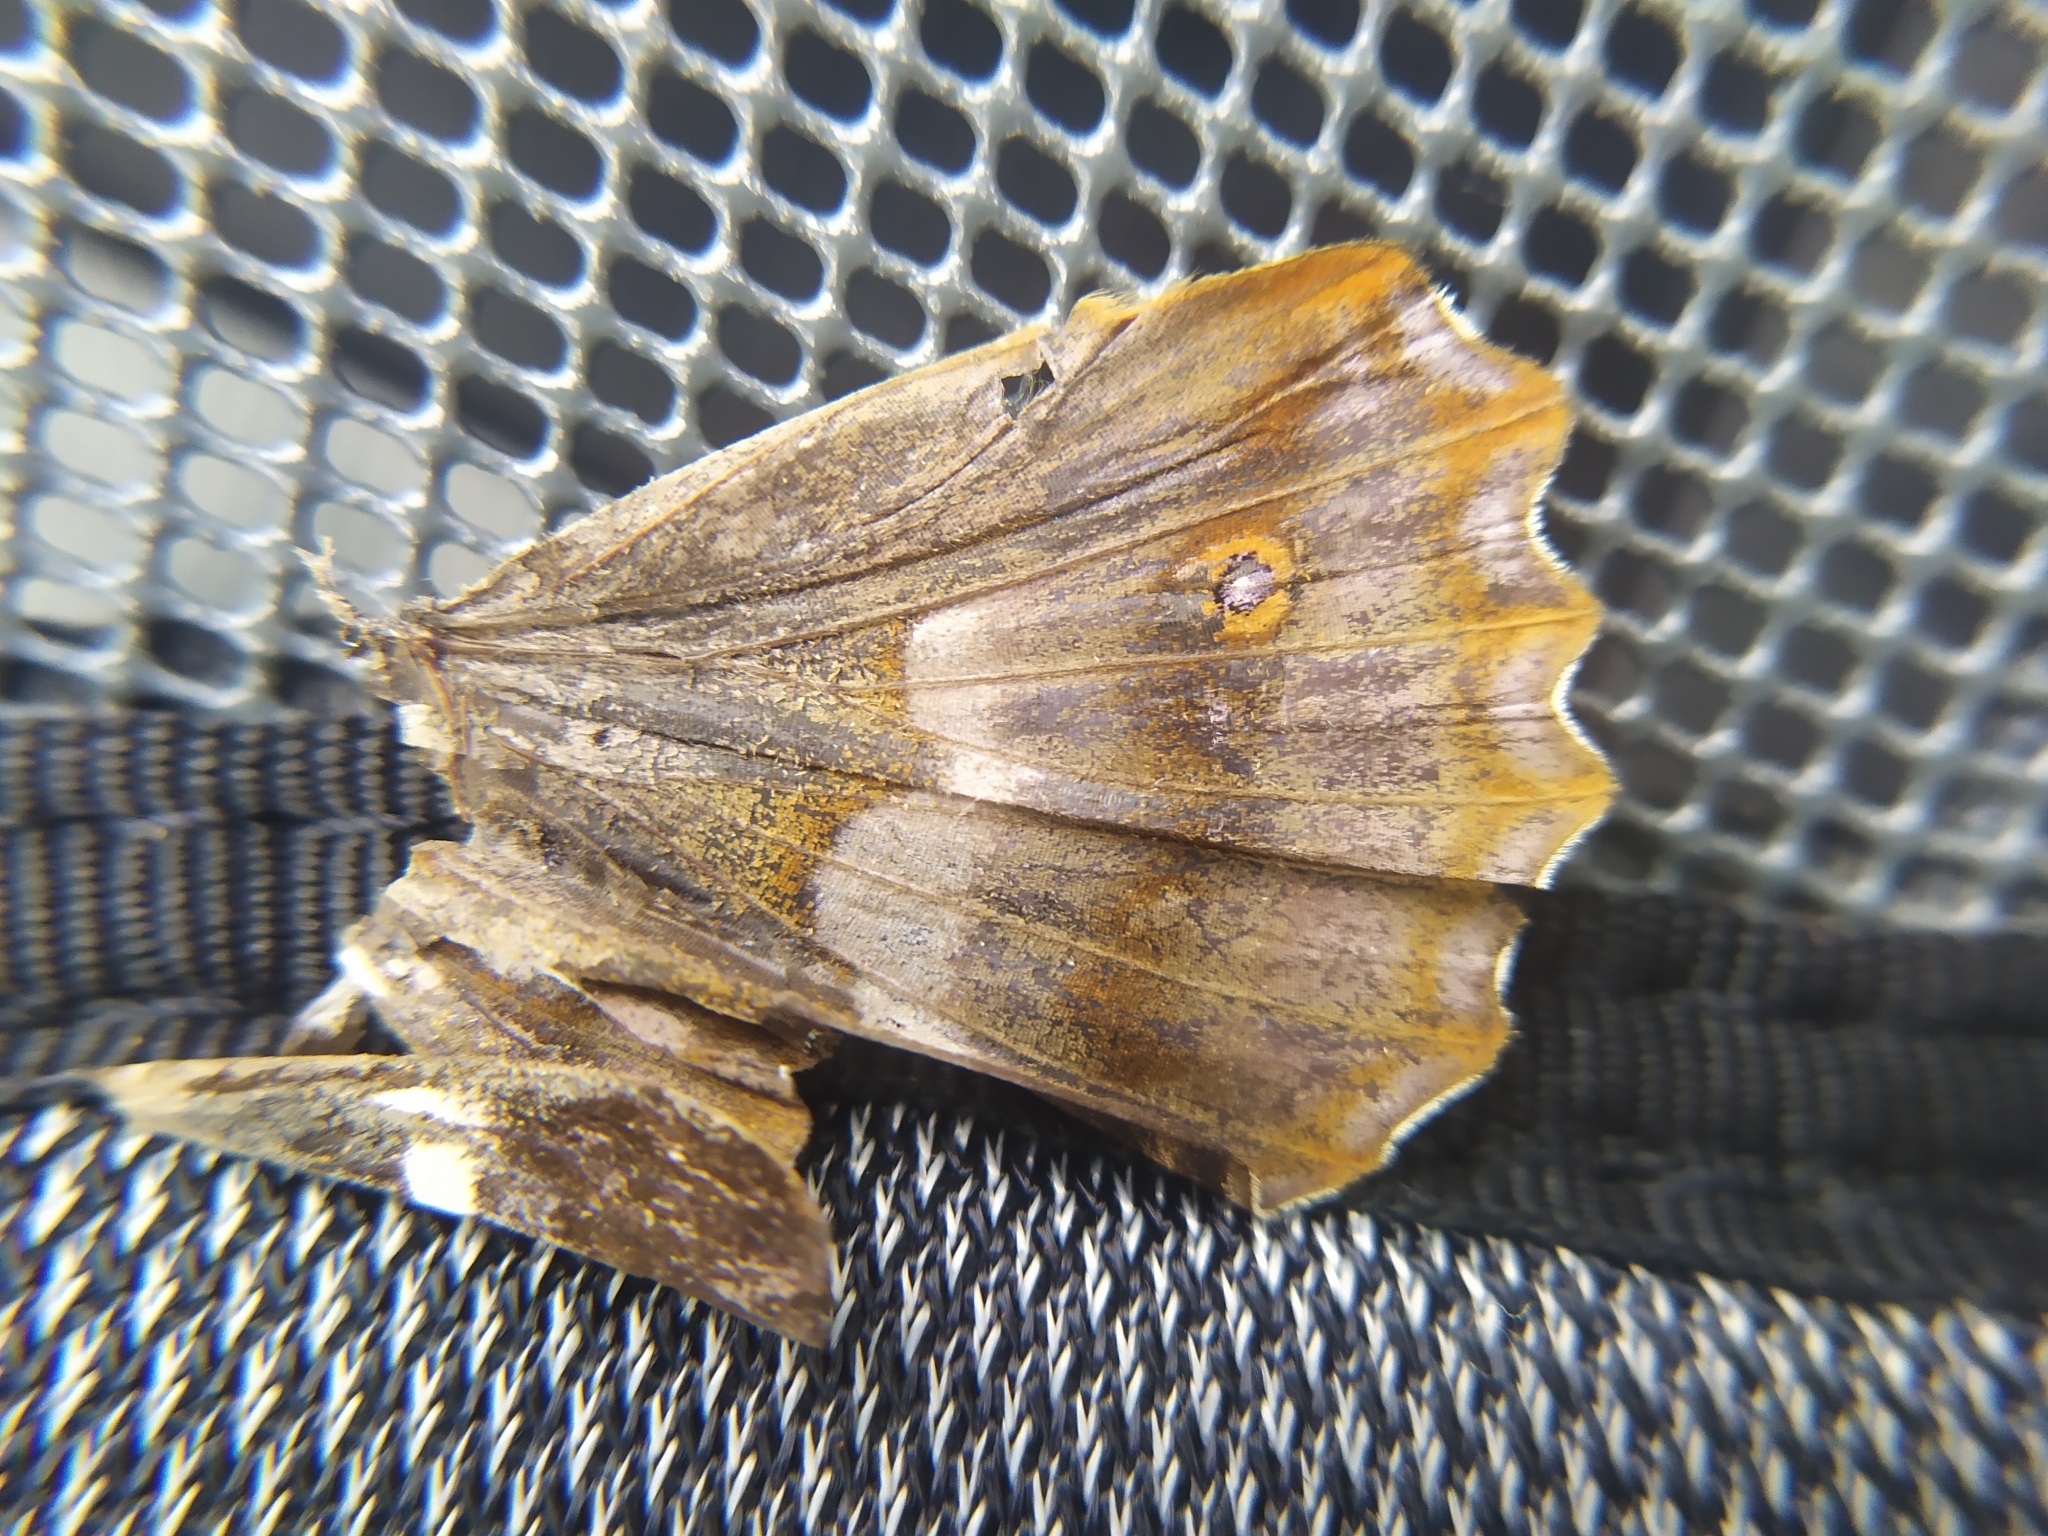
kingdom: Animalia
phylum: Arthropoda
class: Insecta
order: Lepidoptera
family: Nymphalidae
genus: Apatura
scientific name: Apatura ilia
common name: Lesser purple emperor
